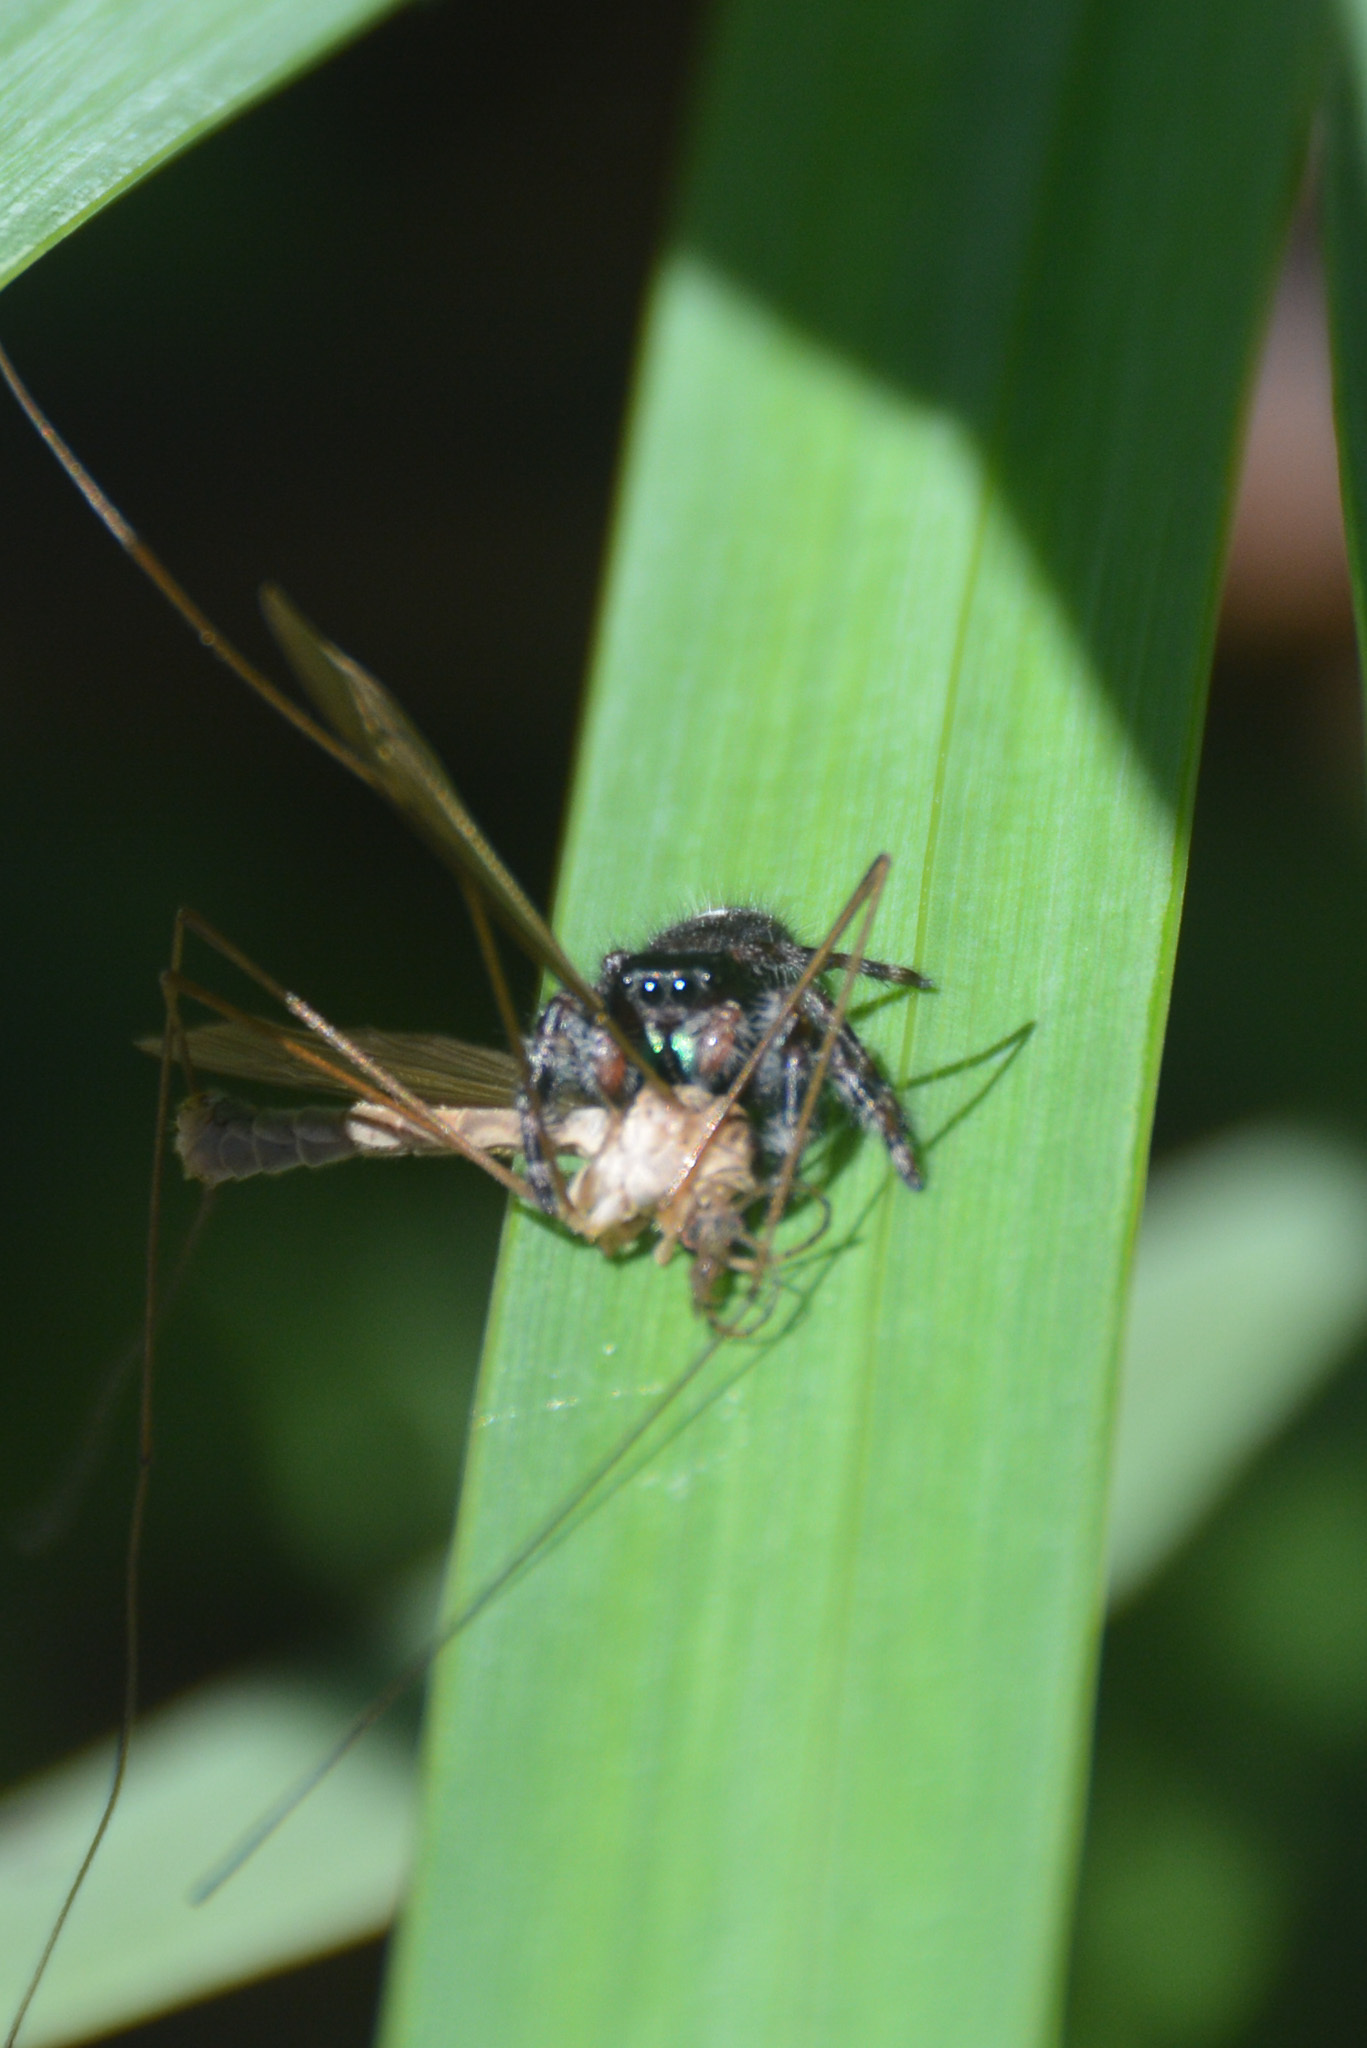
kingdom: Animalia
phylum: Arthropoda
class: Arachnida
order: Araneae
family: Salticidae
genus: Phidippus
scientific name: Phidippus audax
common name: Bold jumper
